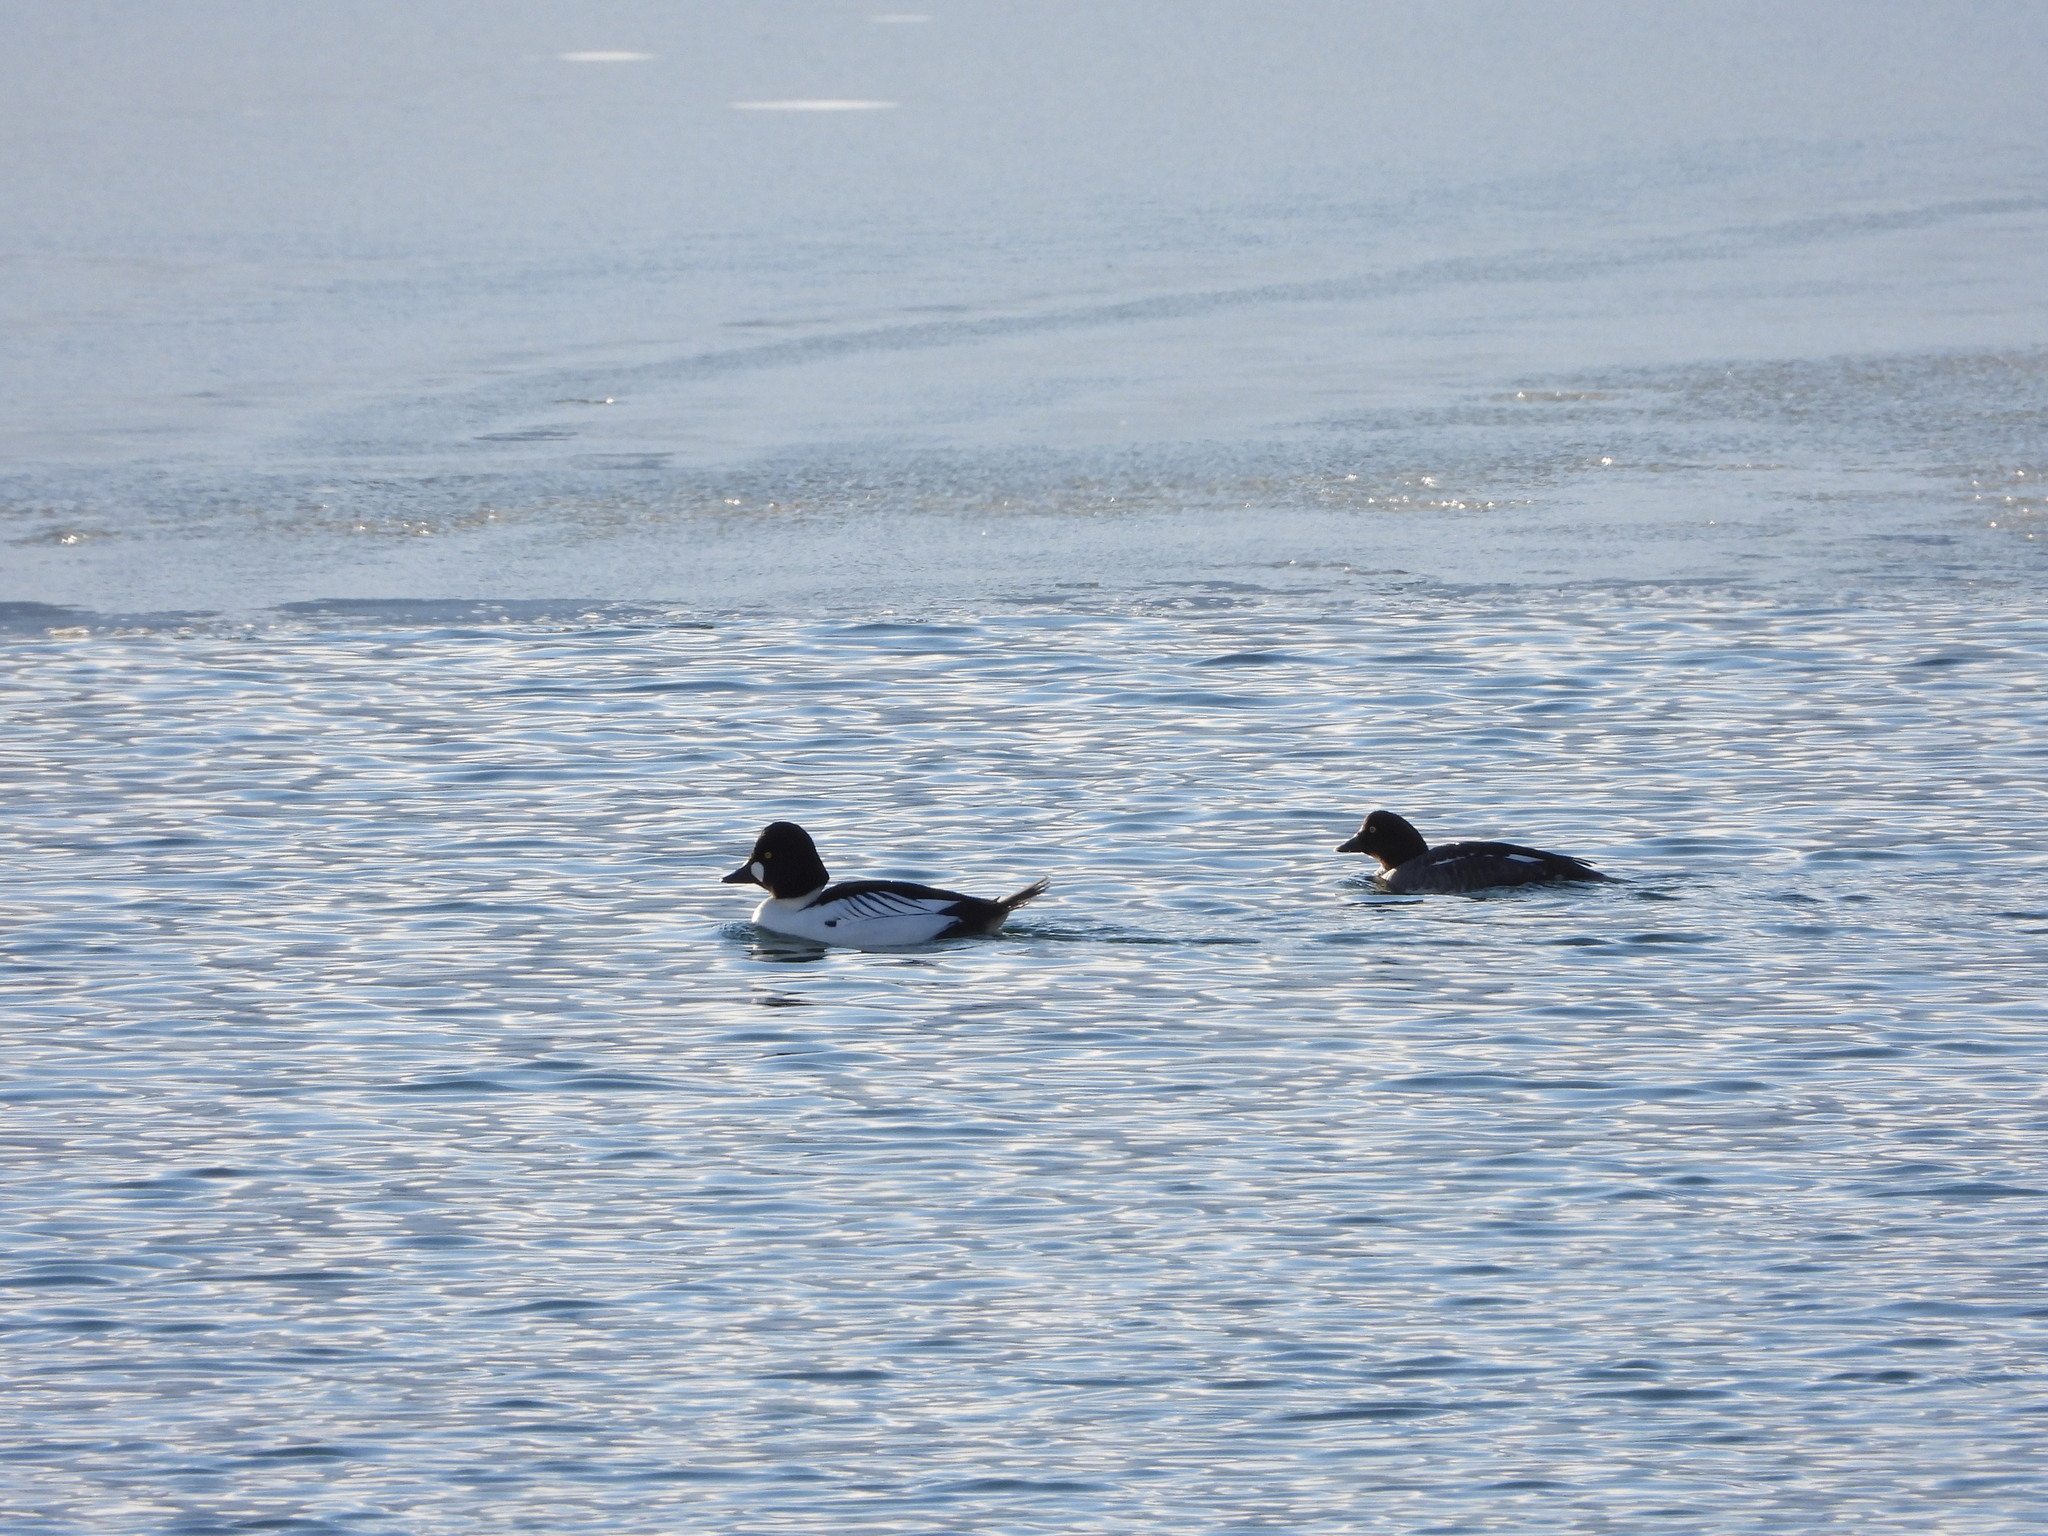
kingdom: Animalia
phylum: Chordata
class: Aves
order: Anseriformes
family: Anatidae
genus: Bucephala
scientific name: Bucephala clangula
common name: Common goldeneye
